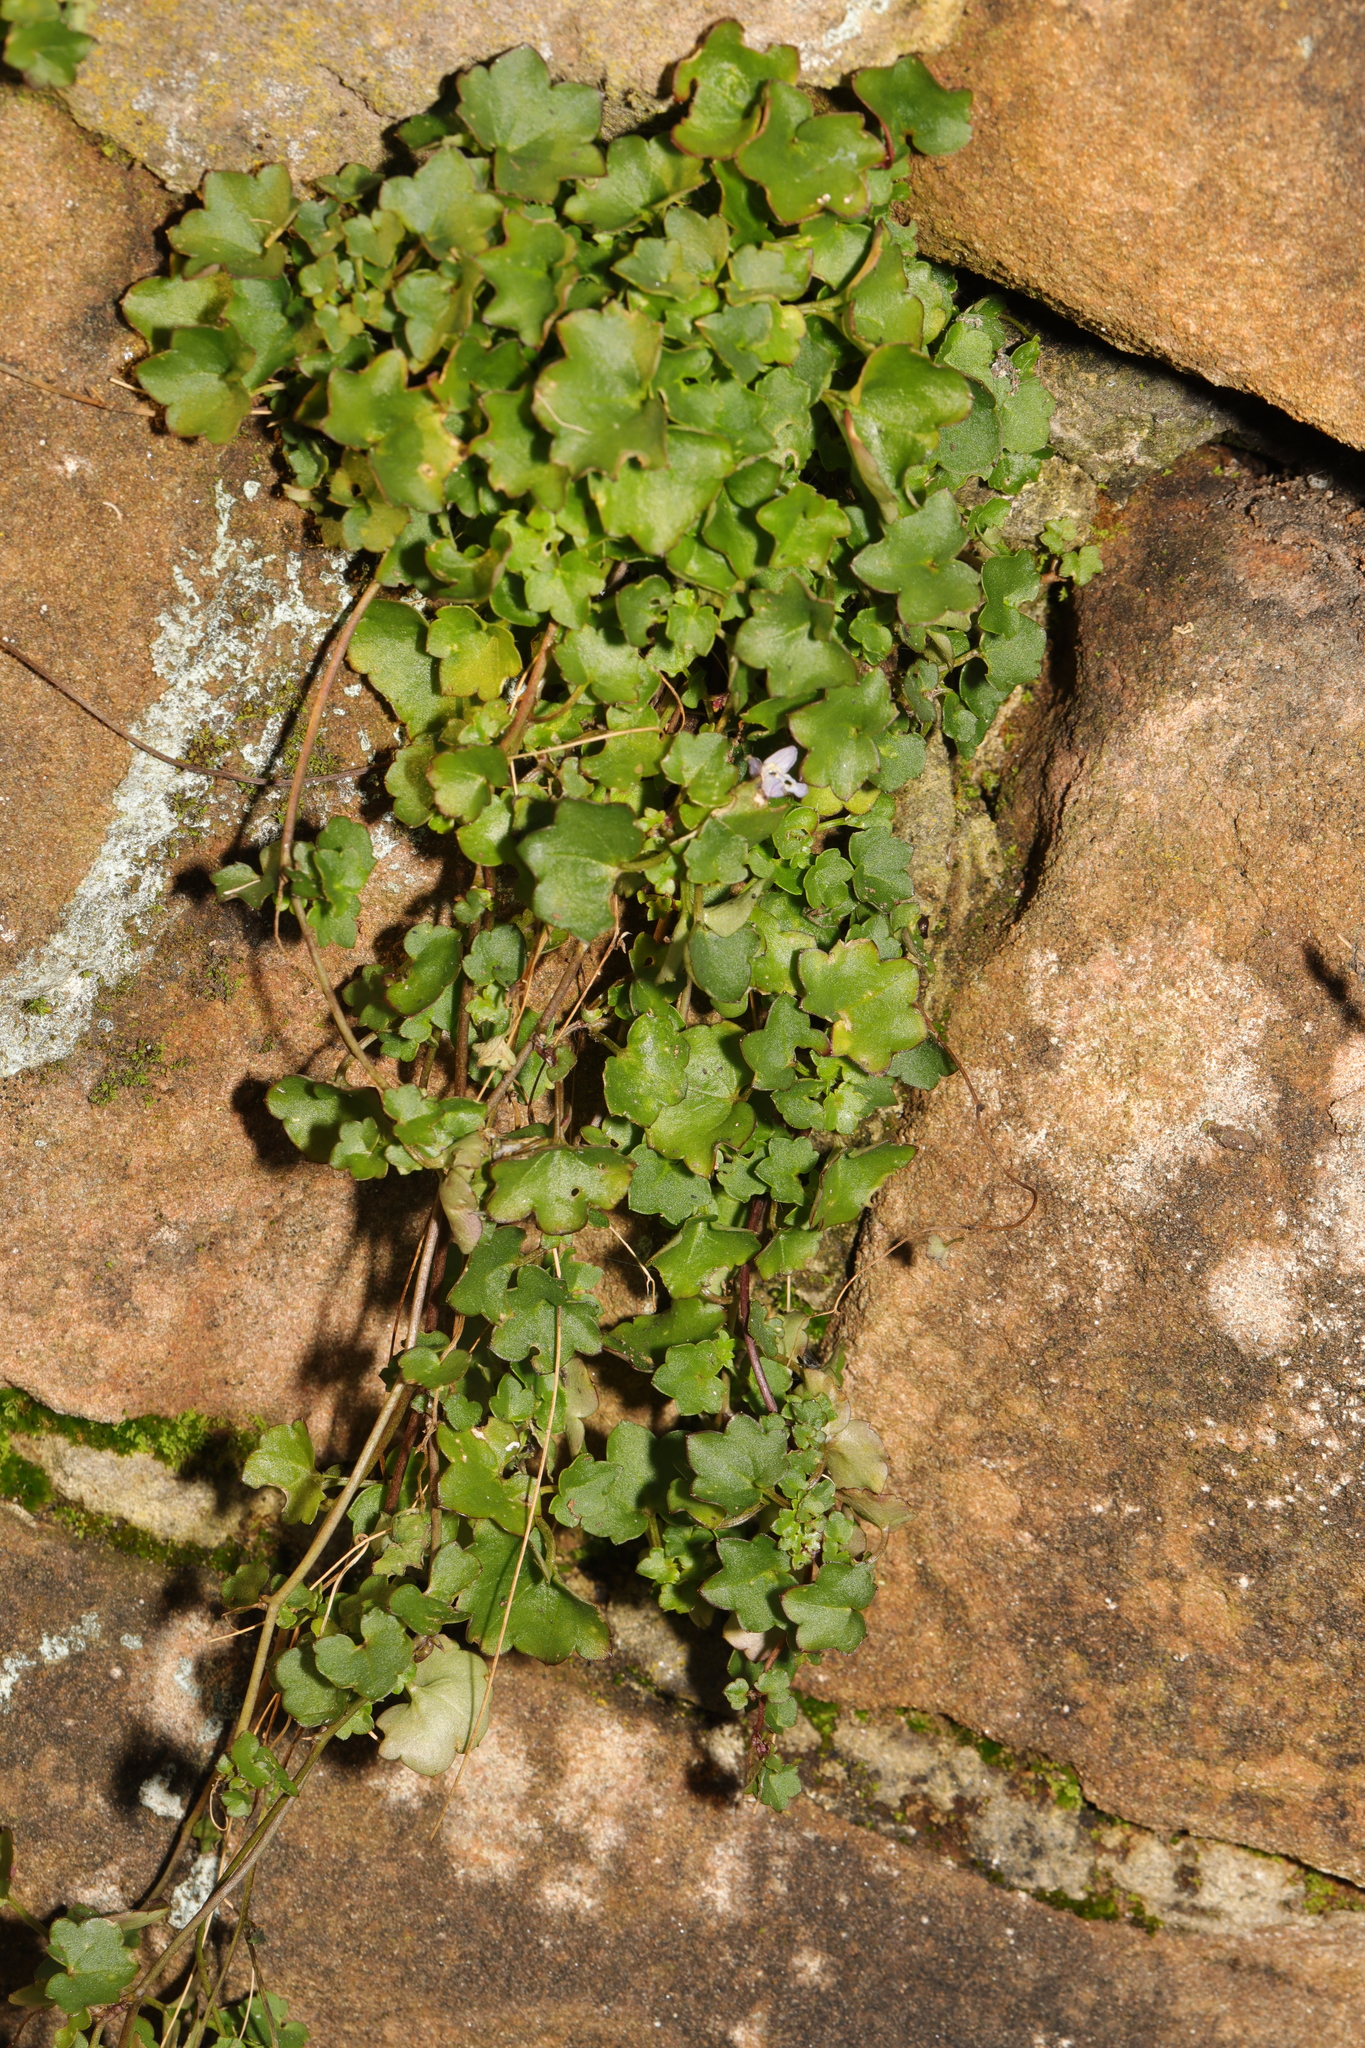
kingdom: Plantae
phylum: Tracheophyta
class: Magnoliopsida
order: Lamiales
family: Plantaginaceae
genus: Cymbalaria
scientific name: Cymbalaria muralis
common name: Ivy-leaved toadflax
